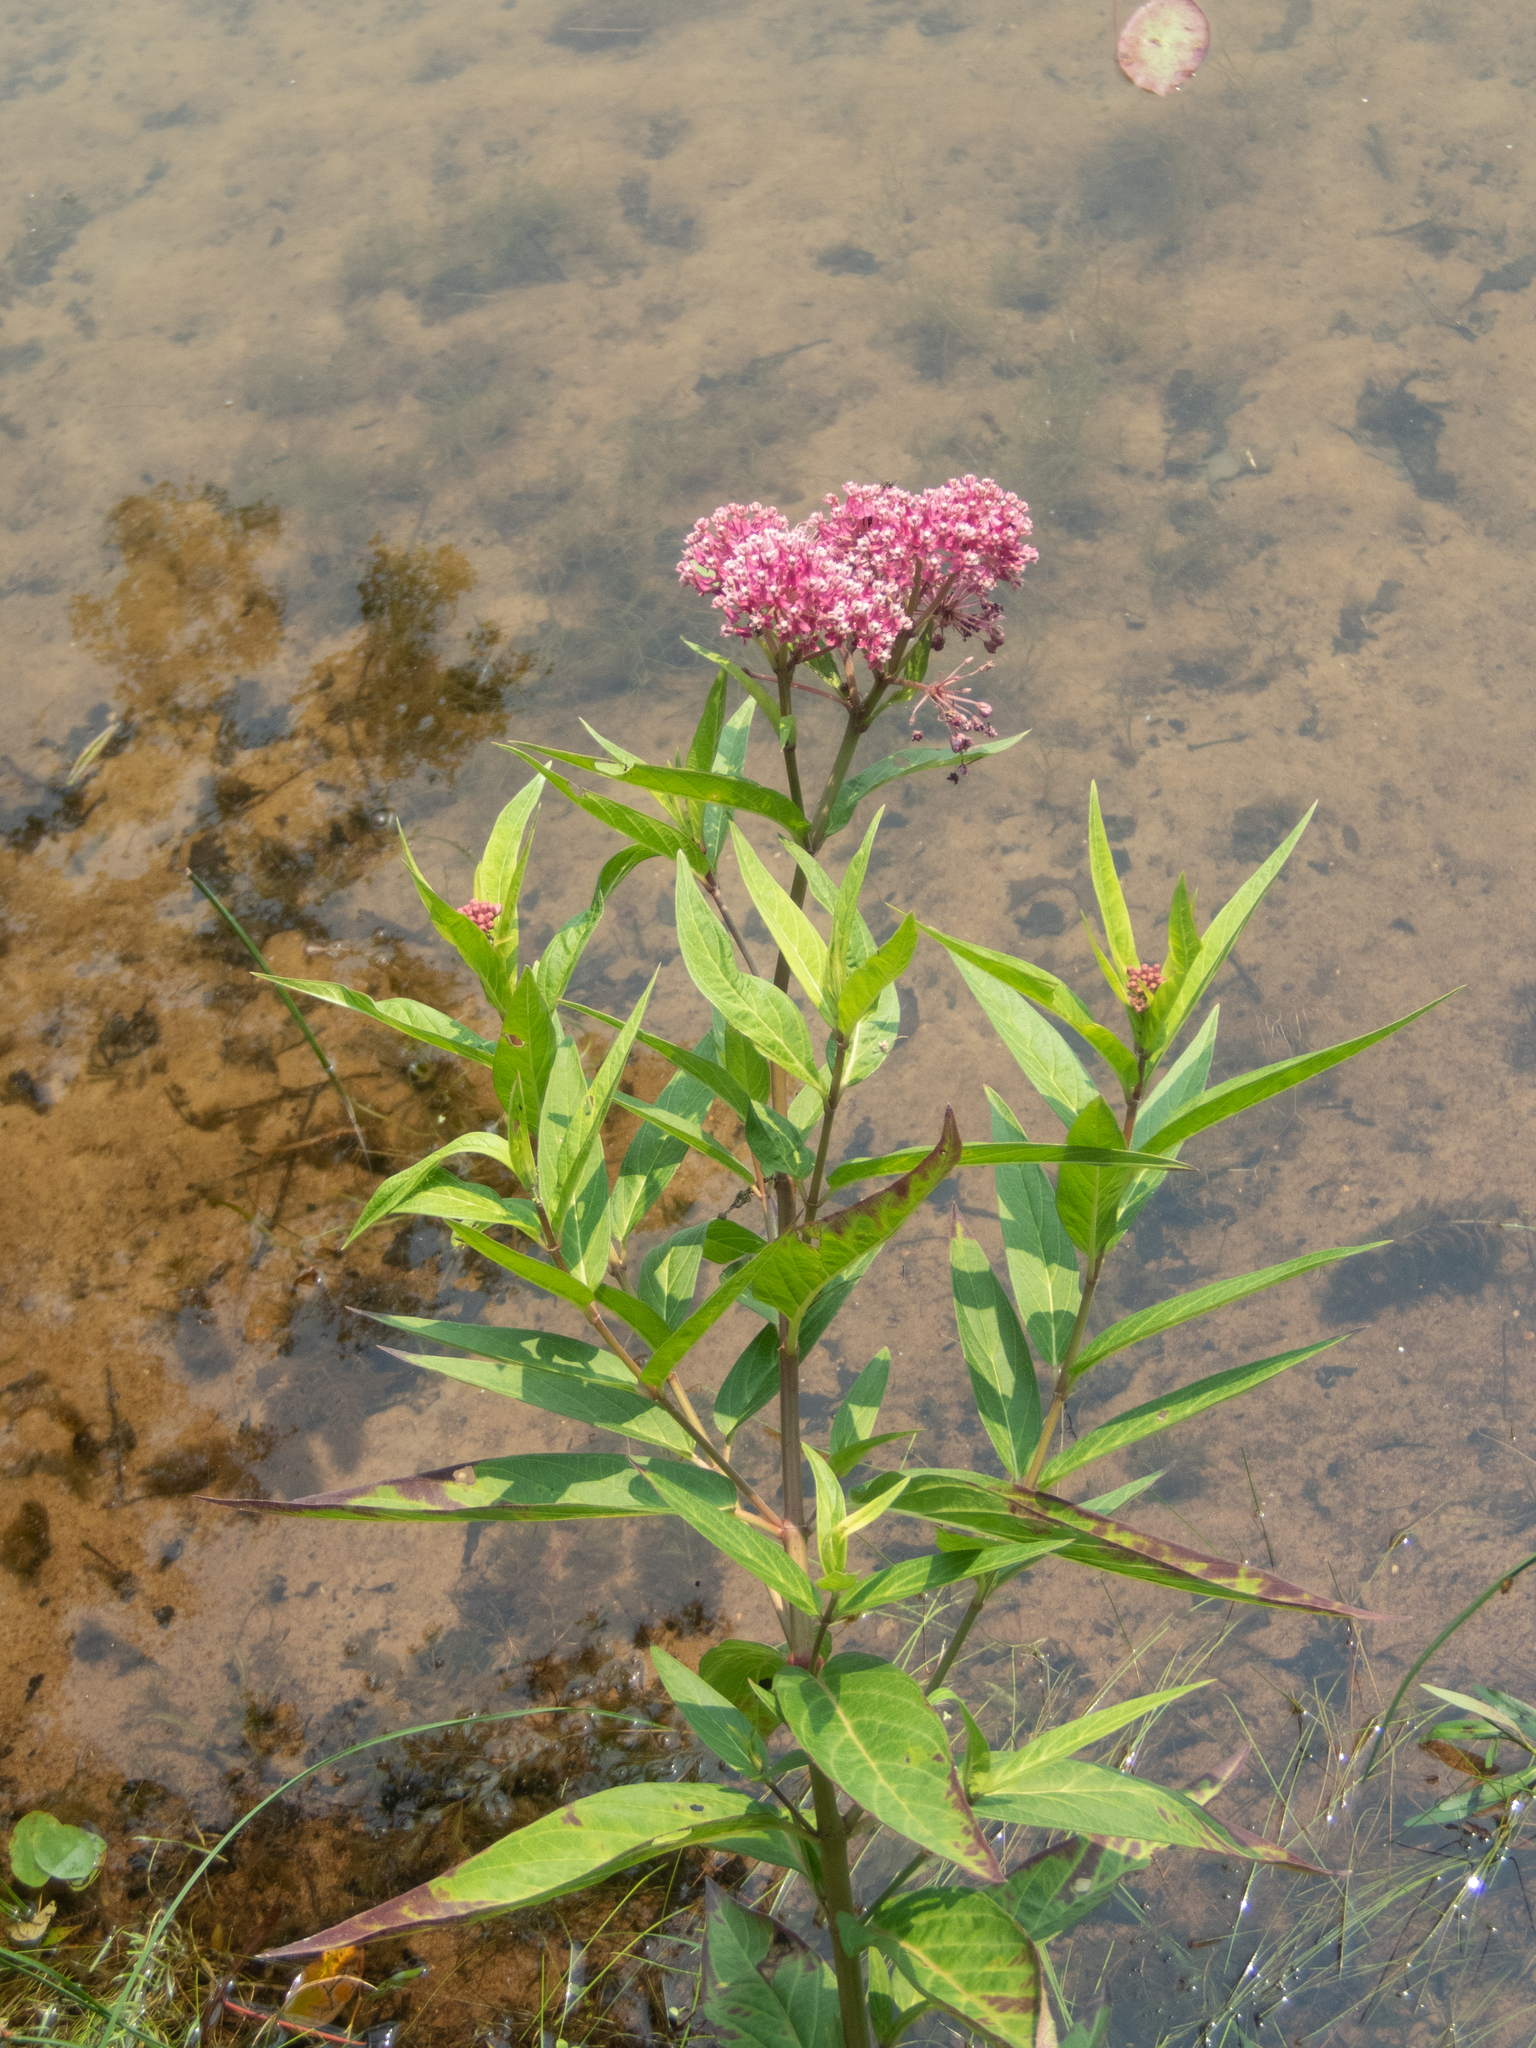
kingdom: Plantae
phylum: Tracheophyta
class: Magnoliopsida
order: Gentianales
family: Apocynaceae
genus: Asclepias
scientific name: Asclepias incarnata
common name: Swamp milkweed
